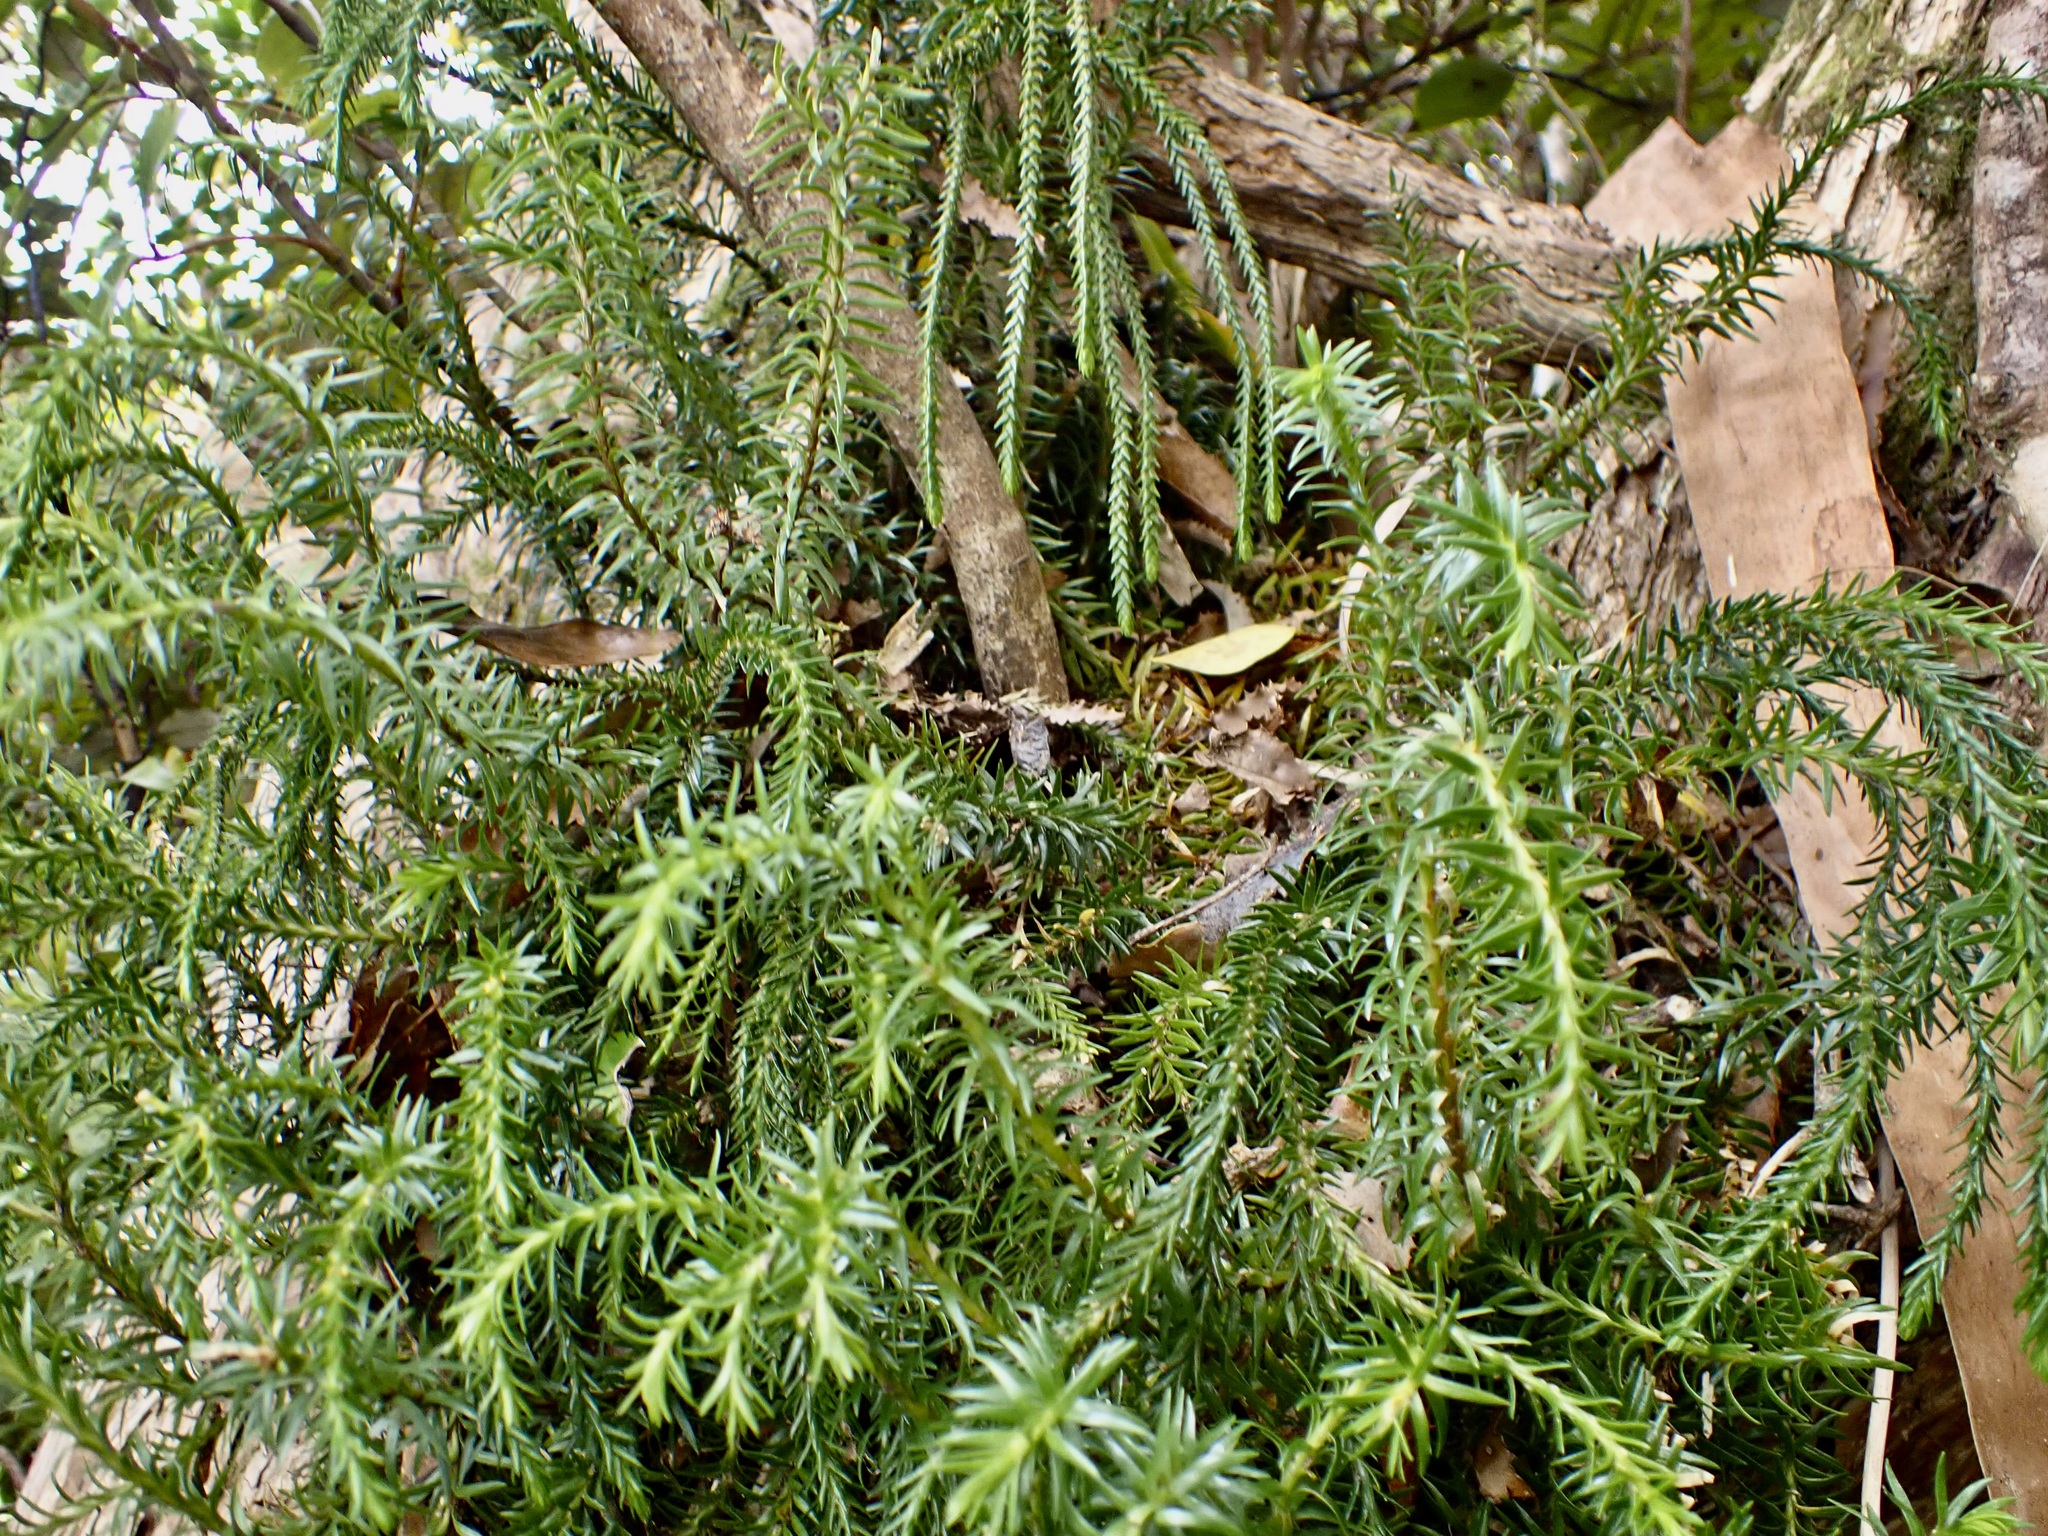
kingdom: Plantae
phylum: Tracheophyta
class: Lycopodiopsida
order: Lycopodiales
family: Lycopodiaceae
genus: Phlegmariurus
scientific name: Phlegmariurus varius
